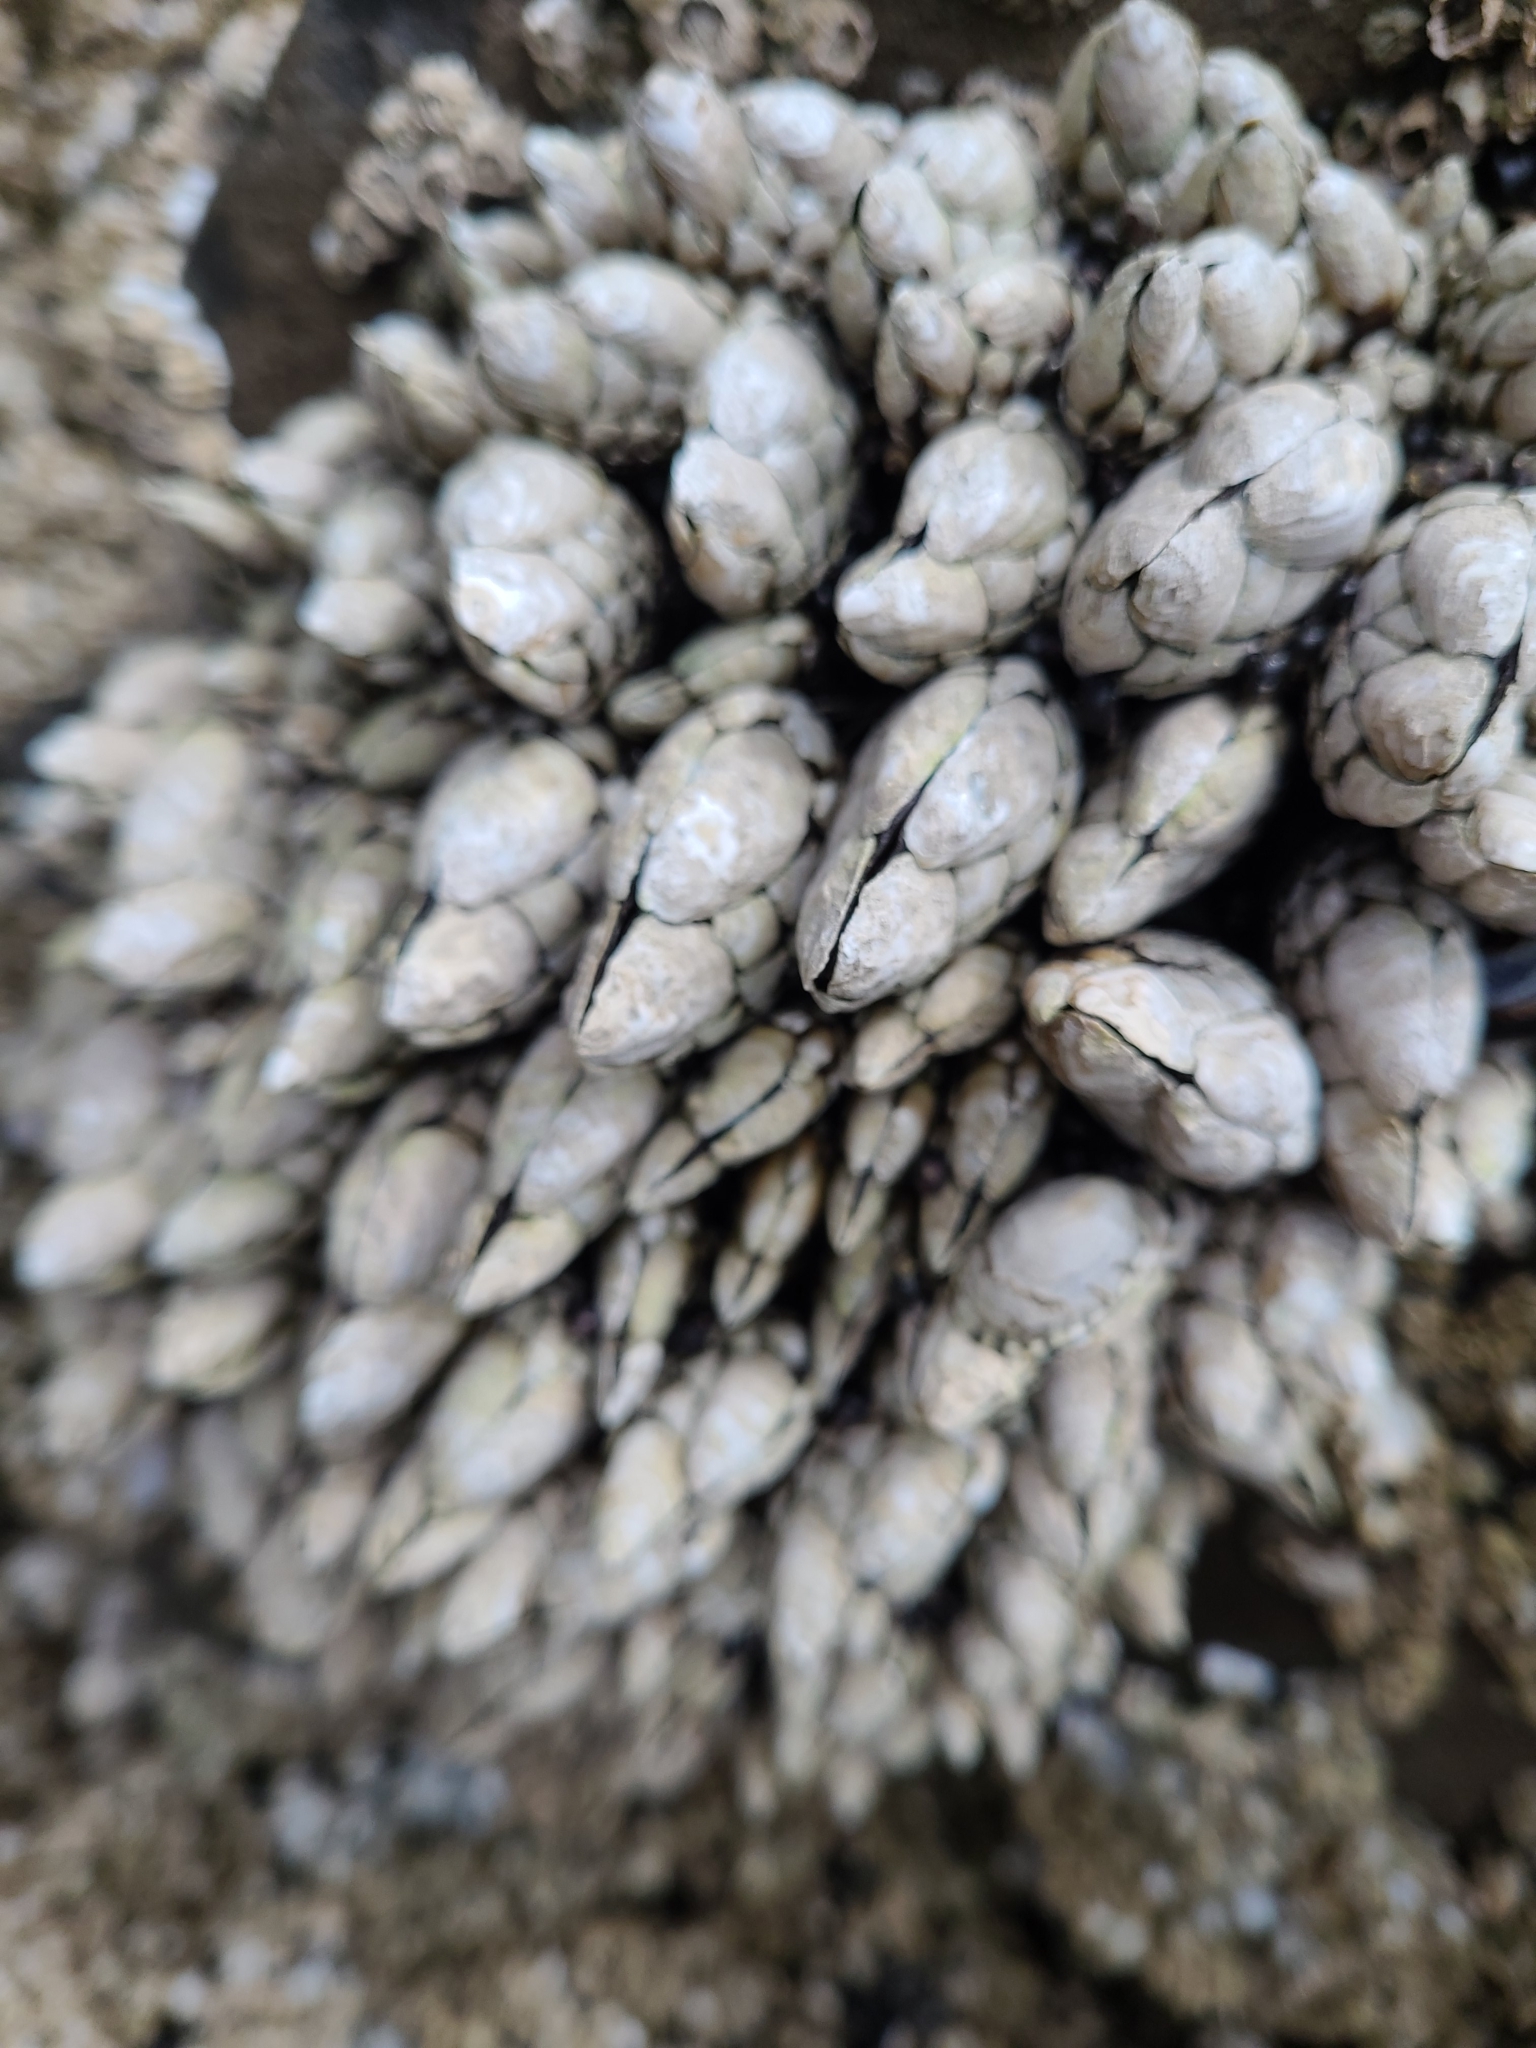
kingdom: Animalia
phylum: Arthropoda
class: Maxillopoda
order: Pedunculata
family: Pollicipedidae
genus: Pollicipes
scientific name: Pollicipes polymerus
